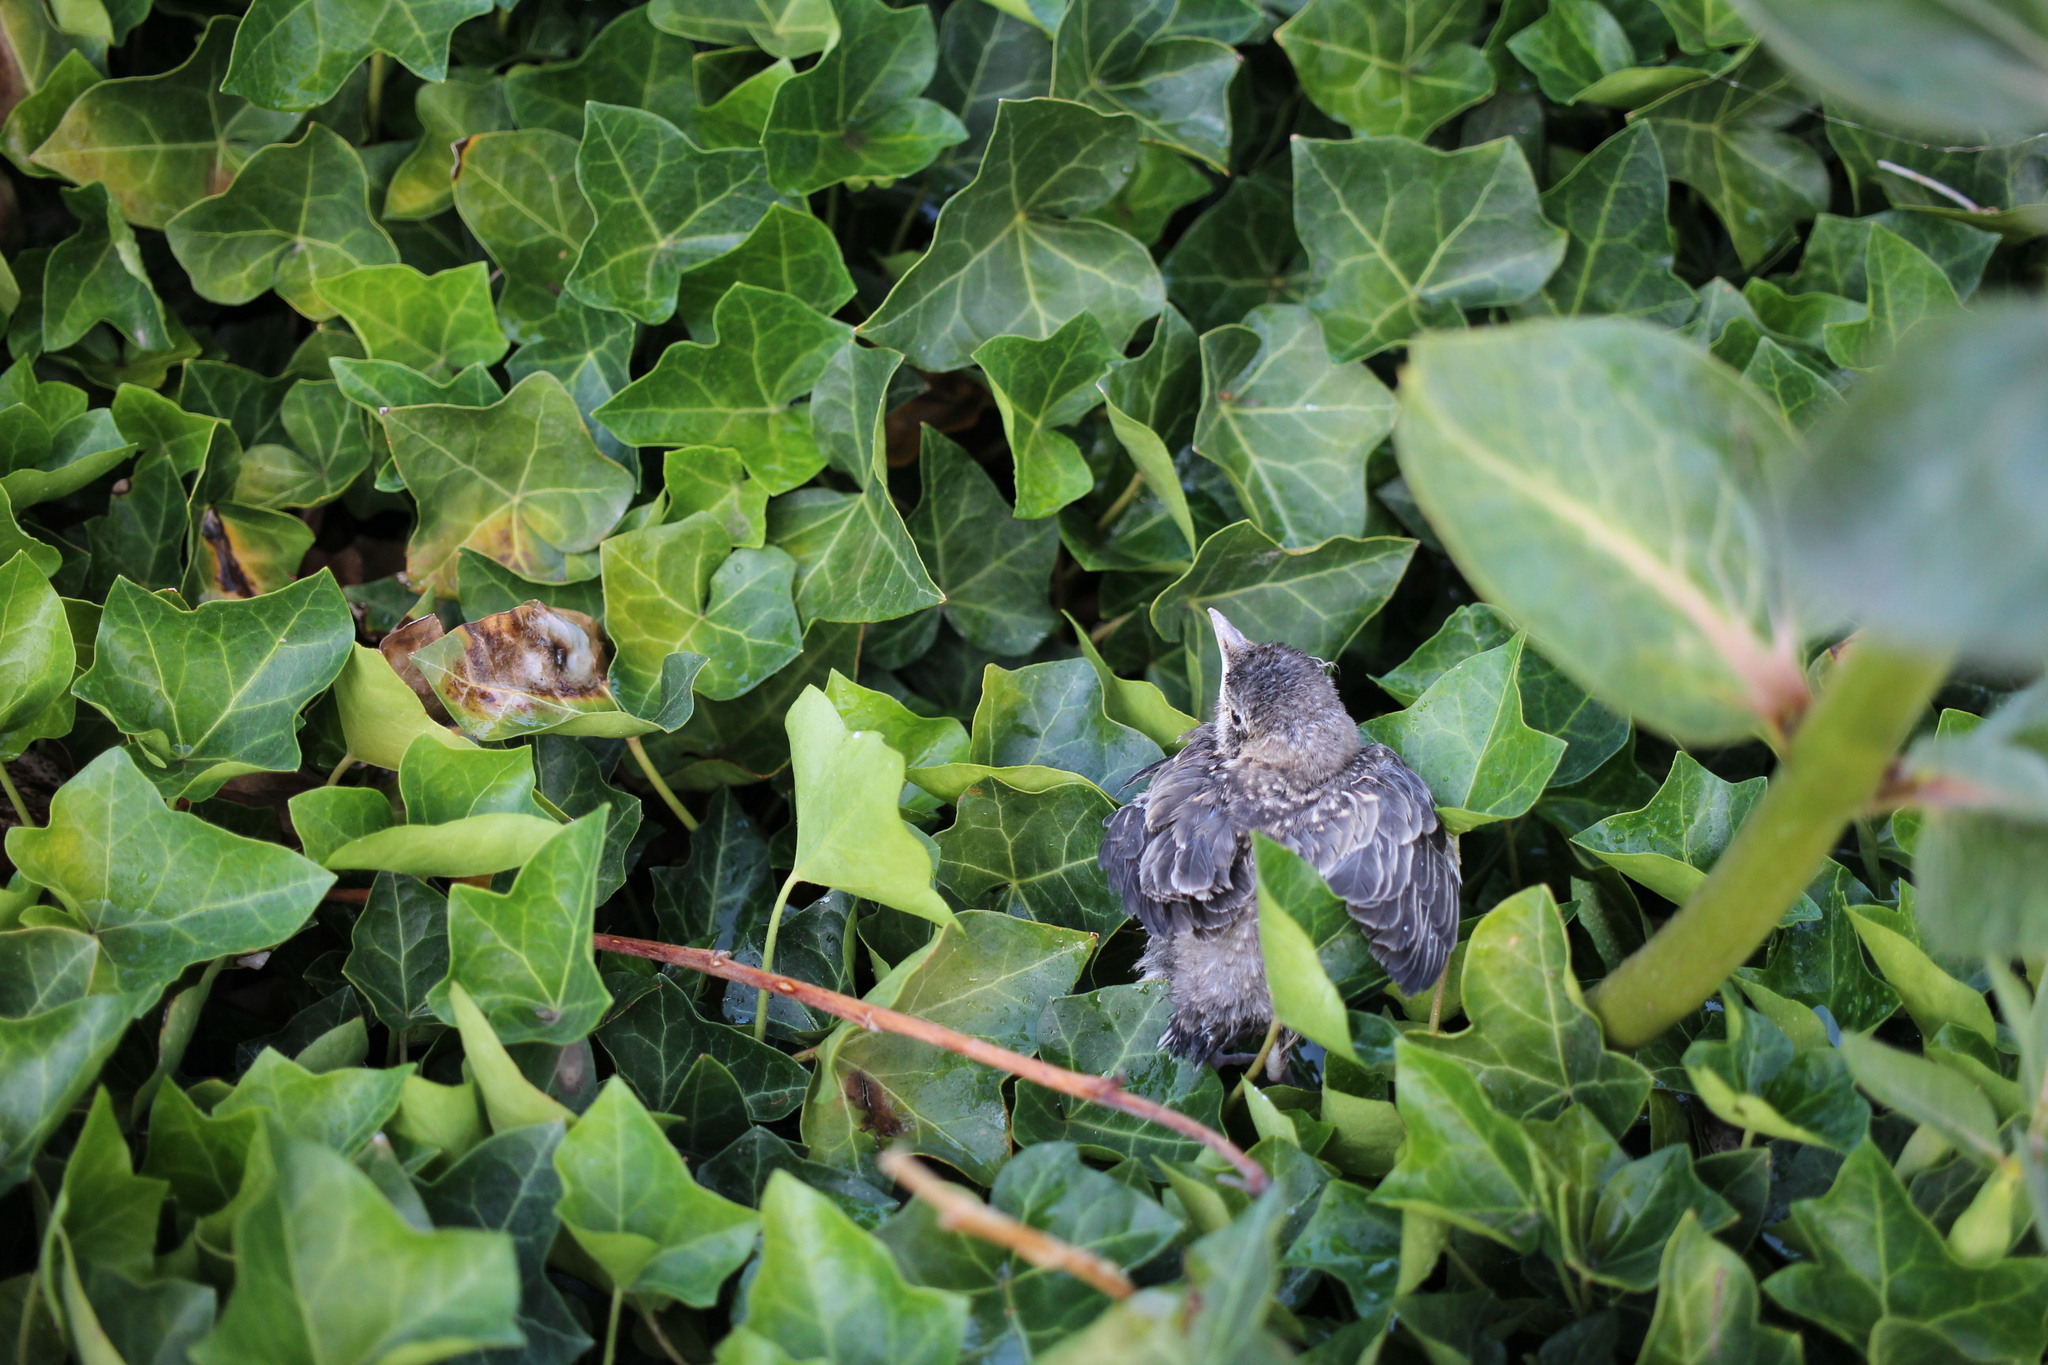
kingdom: Animalia
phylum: Chordata
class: Aves
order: Passeriformes
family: Turdidae
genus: Turdus
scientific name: Turdus migratorius
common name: American robin
